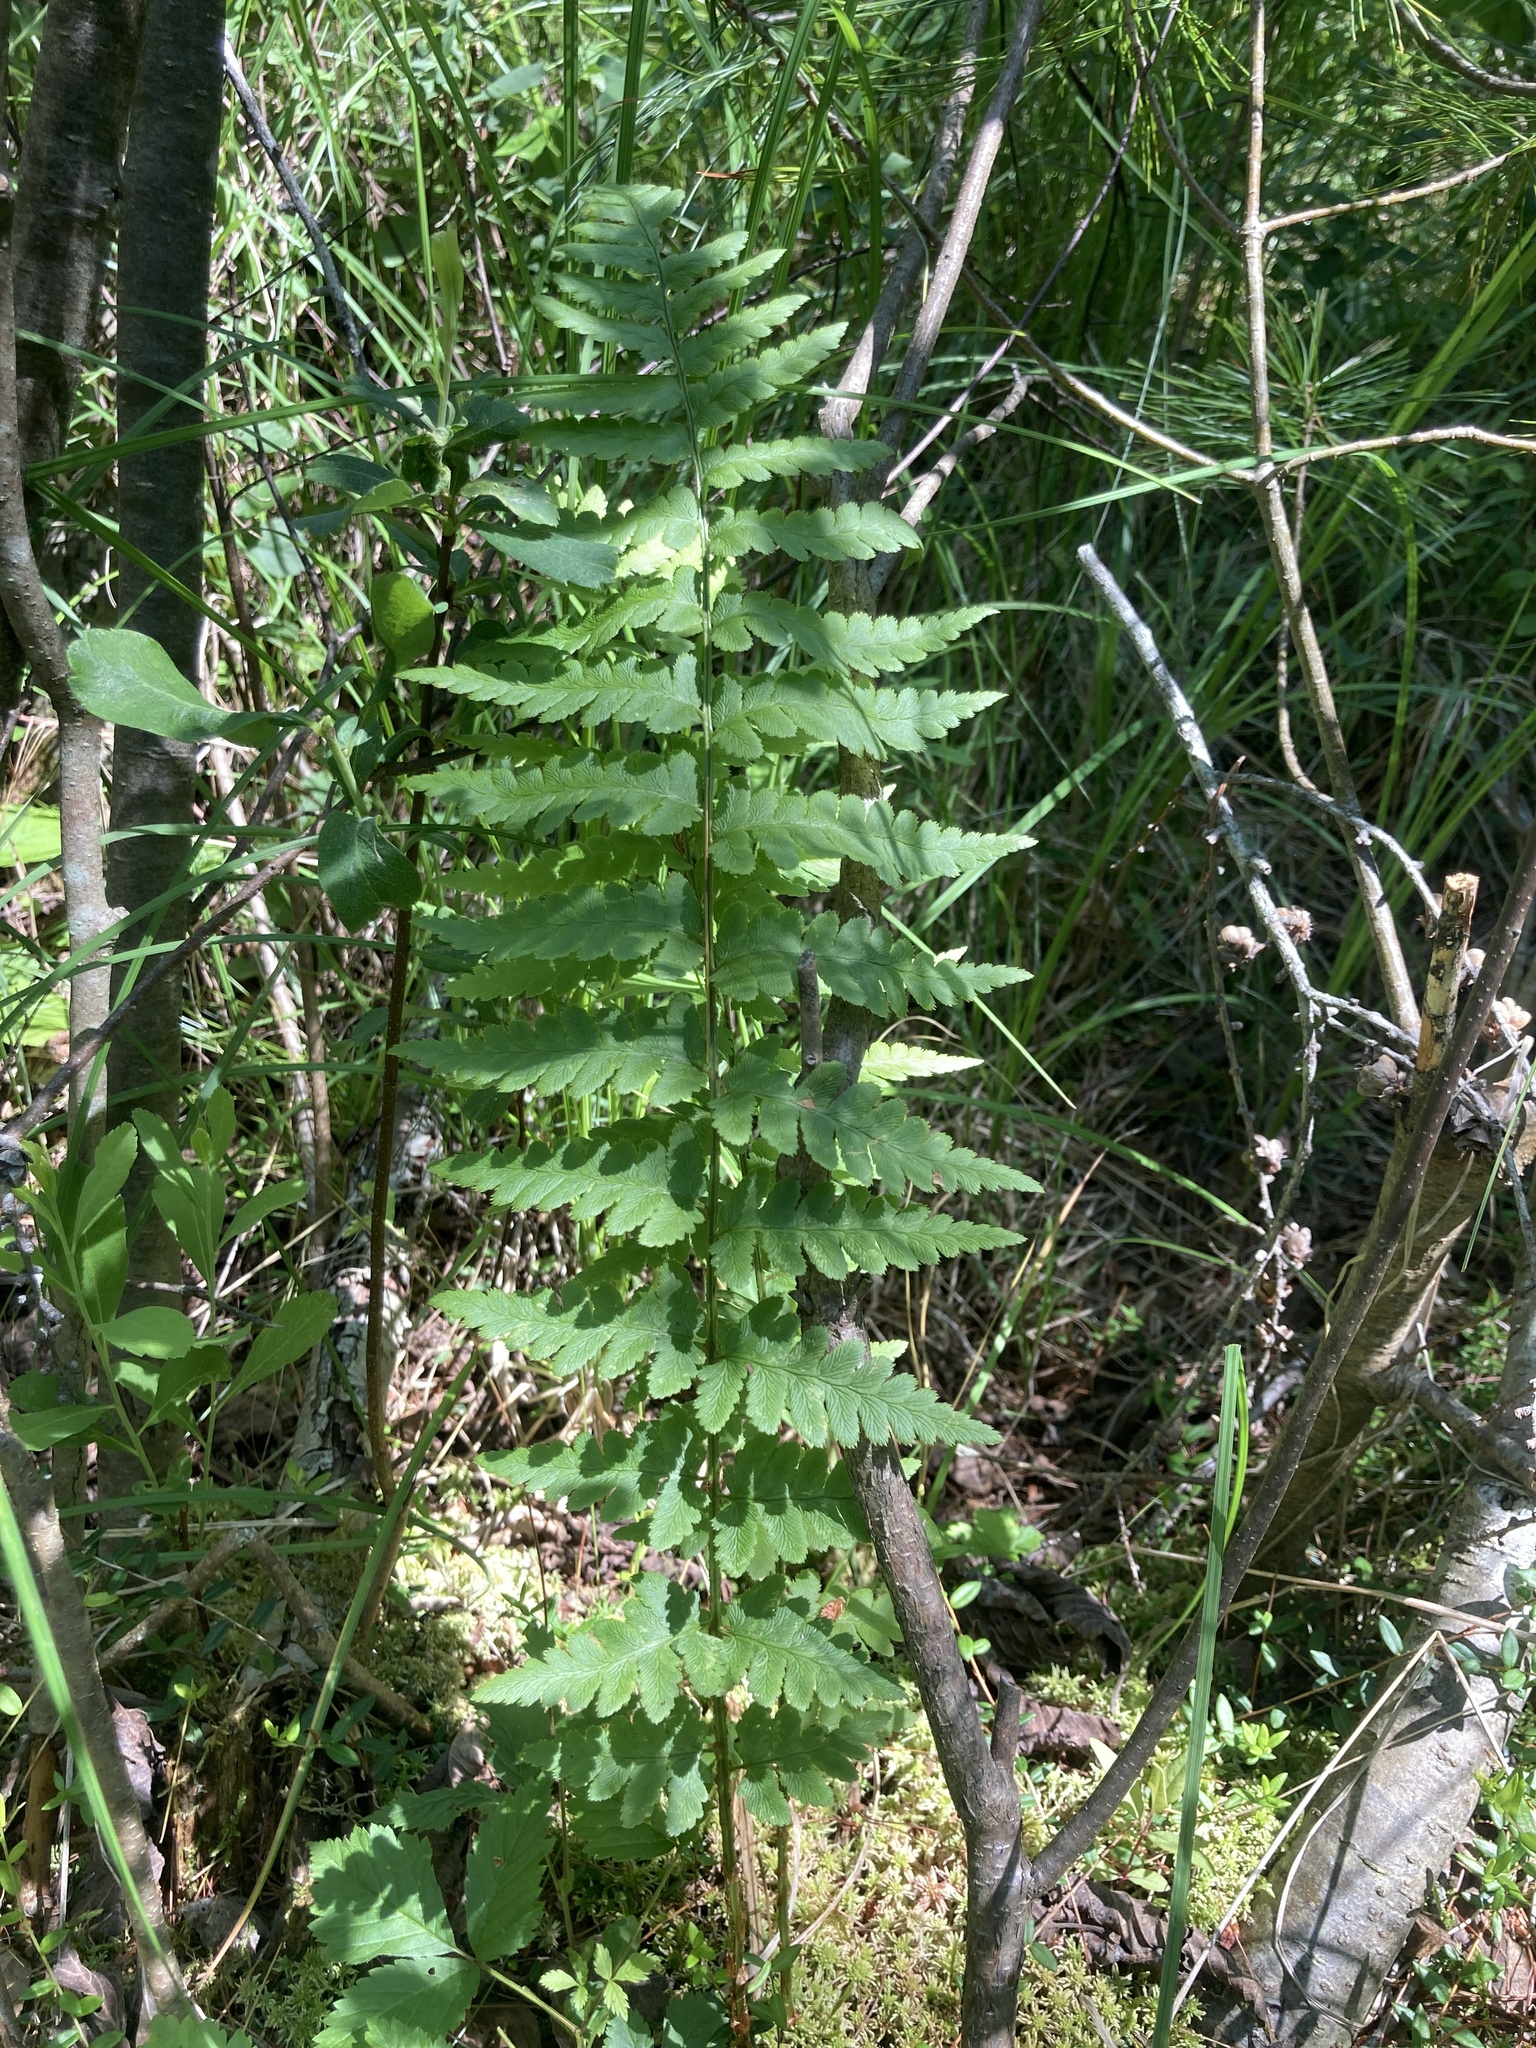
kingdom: Plantae
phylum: Tracheophyta
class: Polypodiopsida
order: Polypodiales
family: Dryopteridaceae
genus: Dryopteris
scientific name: Dryopteris cristata
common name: Crested wood fern
